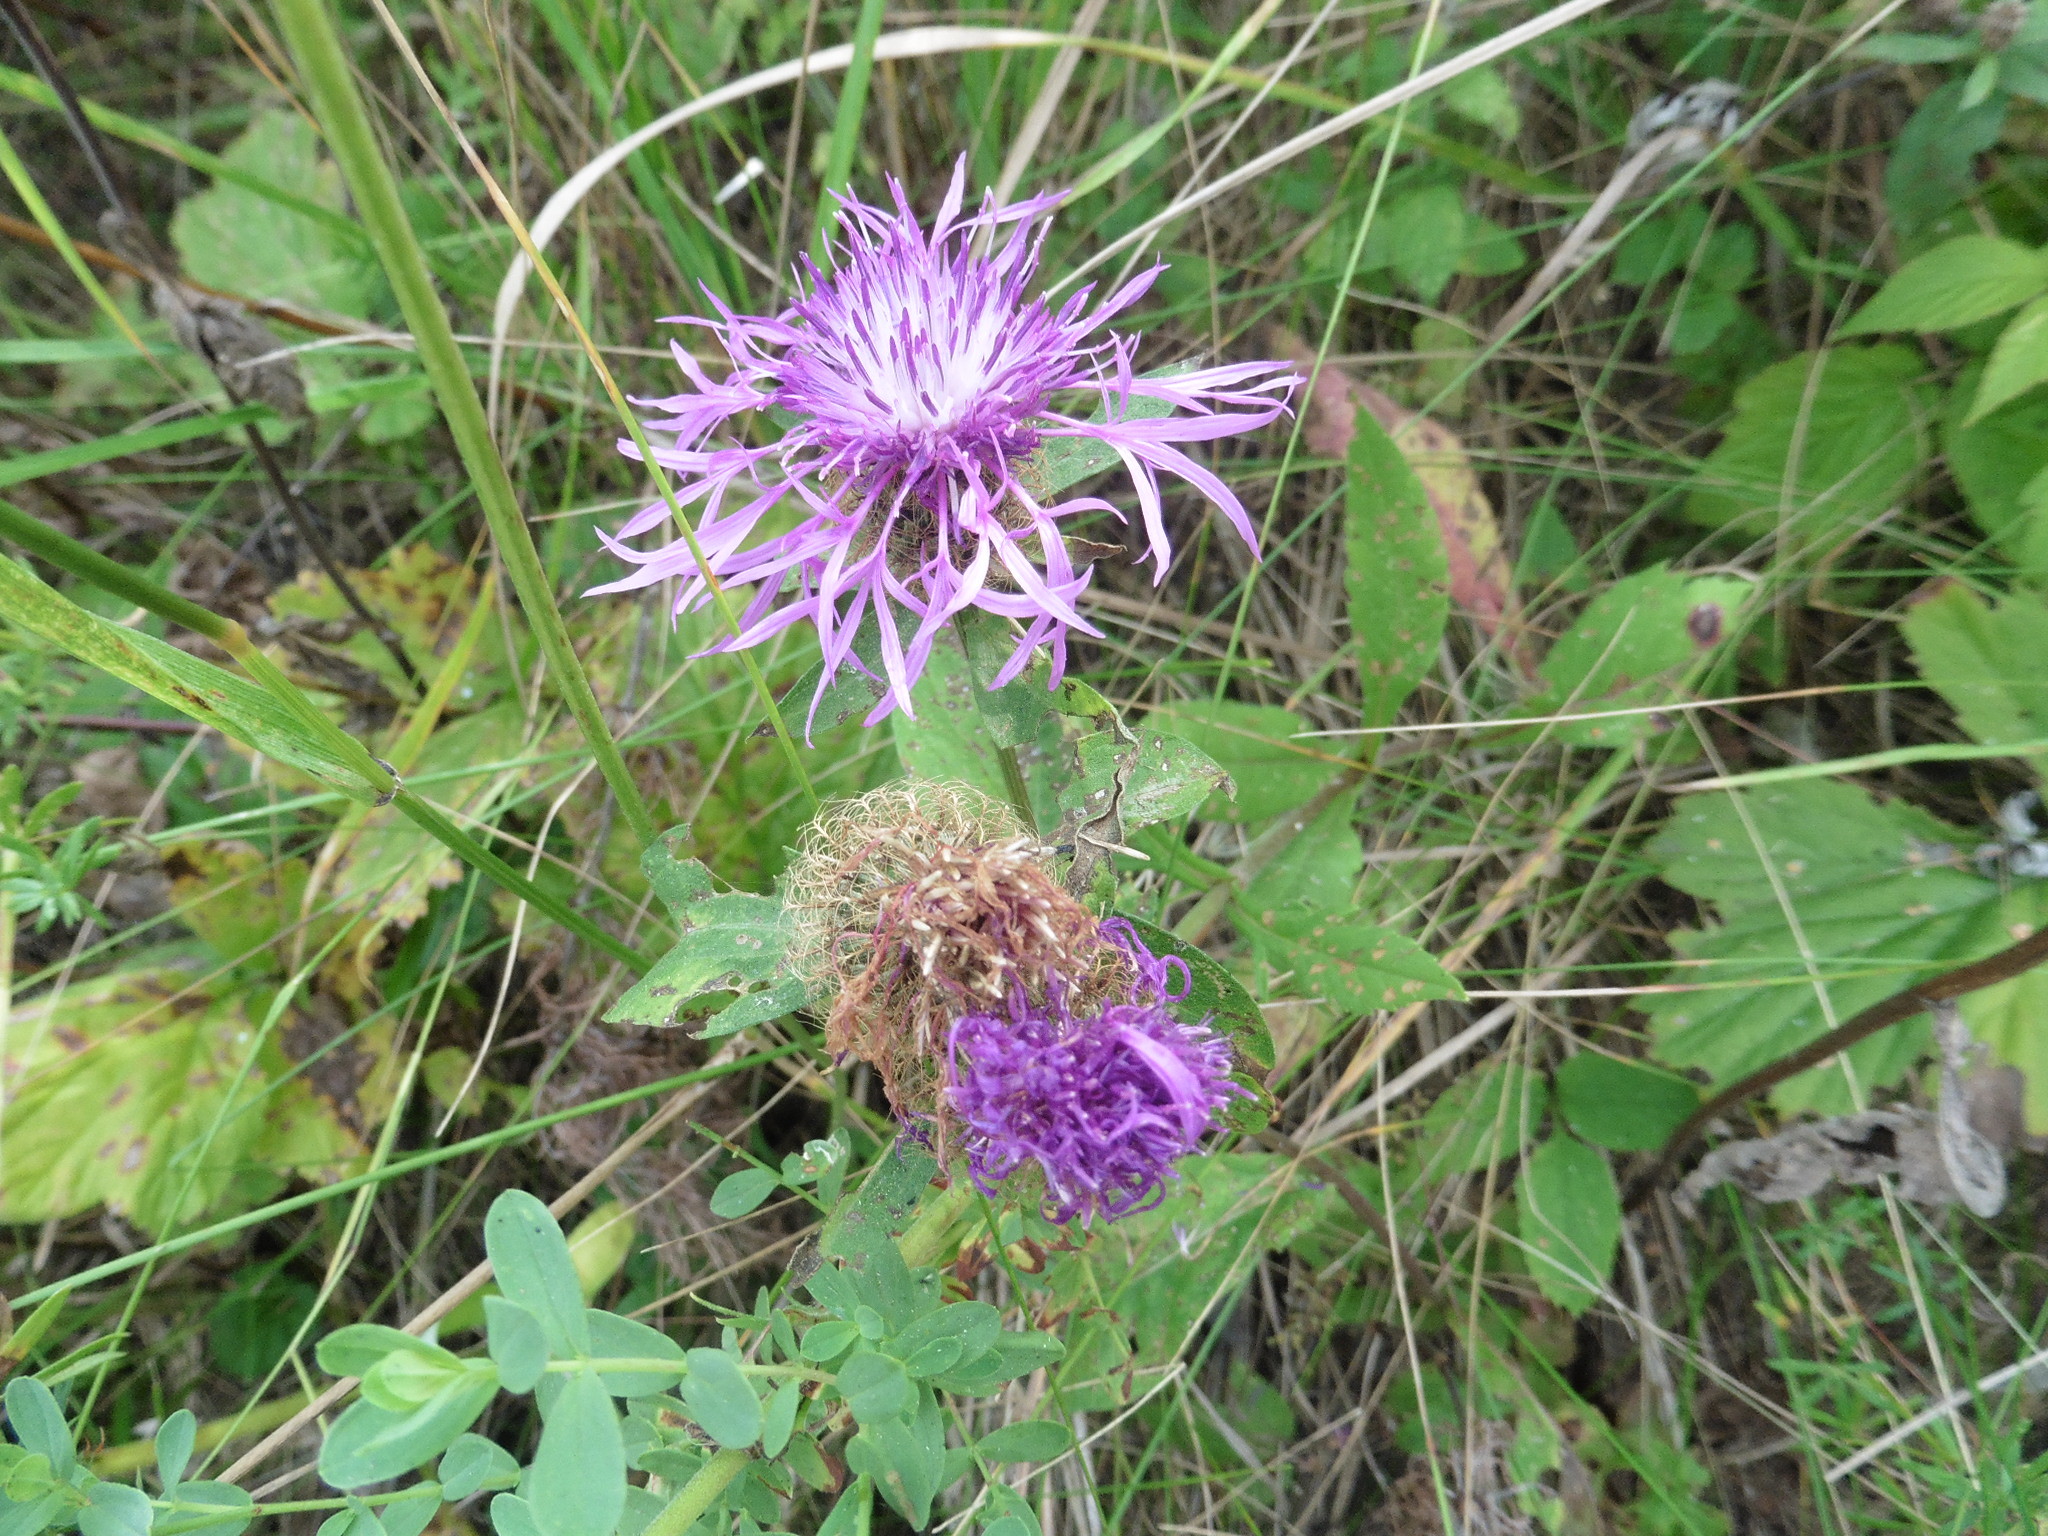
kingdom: Plantae
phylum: Tracheophyta
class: Magnoliopsida
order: Asterales
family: Asteraceae
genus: Centaurea
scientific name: Centaurea phrygia
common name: Wig knapweed
